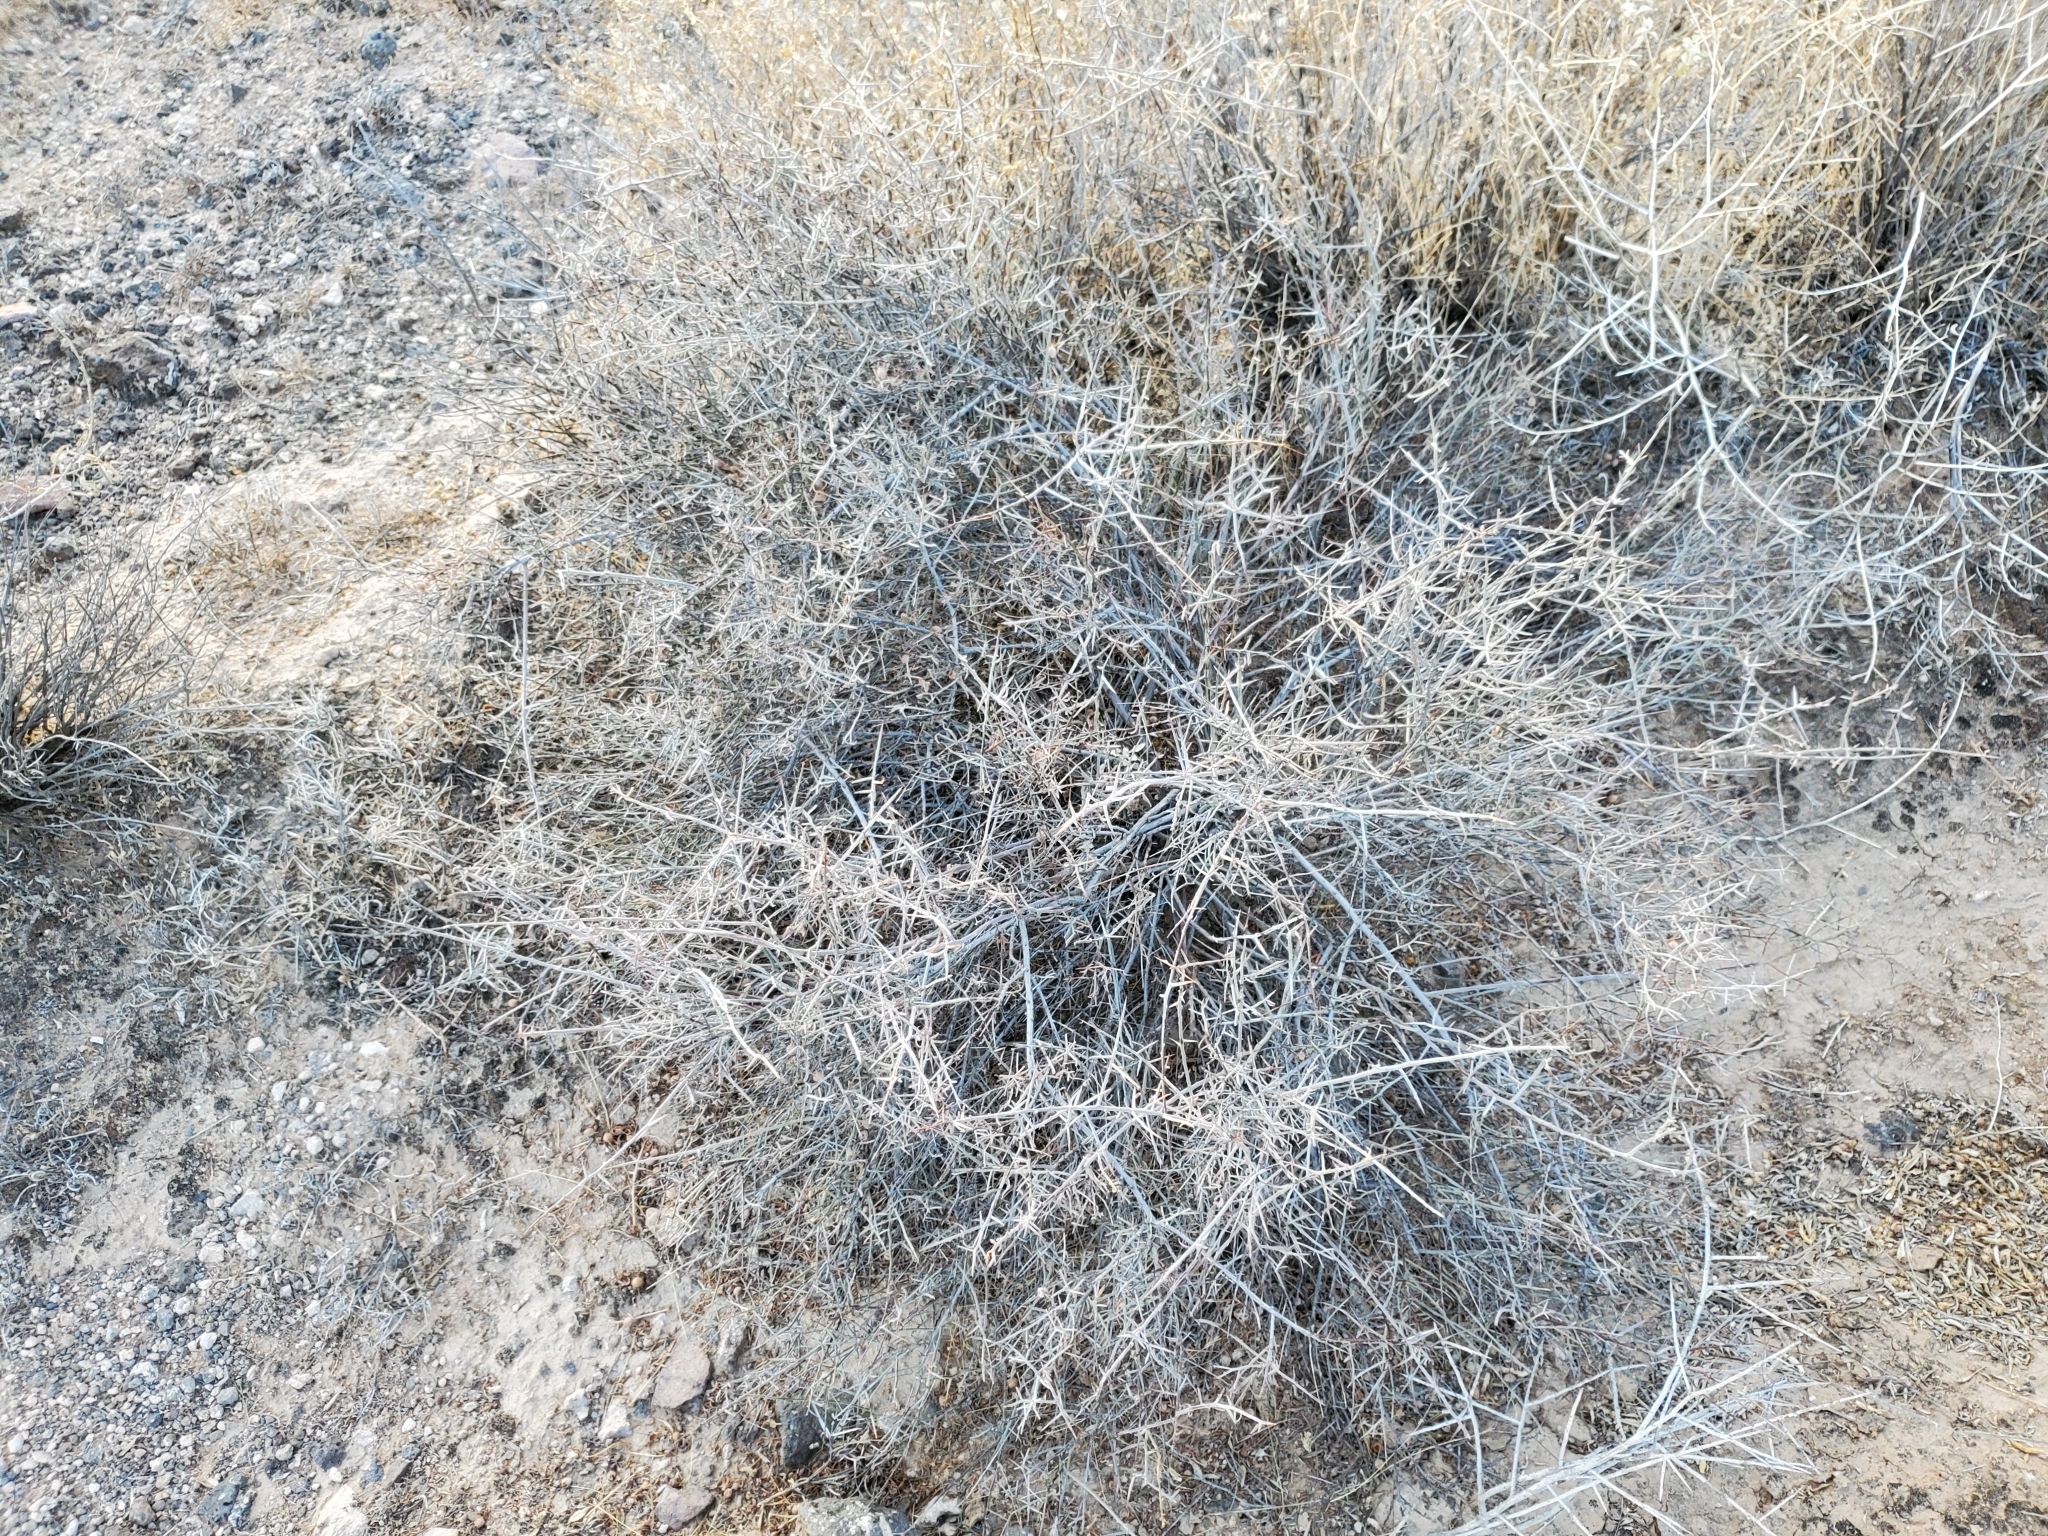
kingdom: Plantae
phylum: Tracheophyta
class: Magnoliopsida
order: Zygophyllales
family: Krameriaceae
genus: Krameria
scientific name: Krameria bicolor
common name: White ratany
